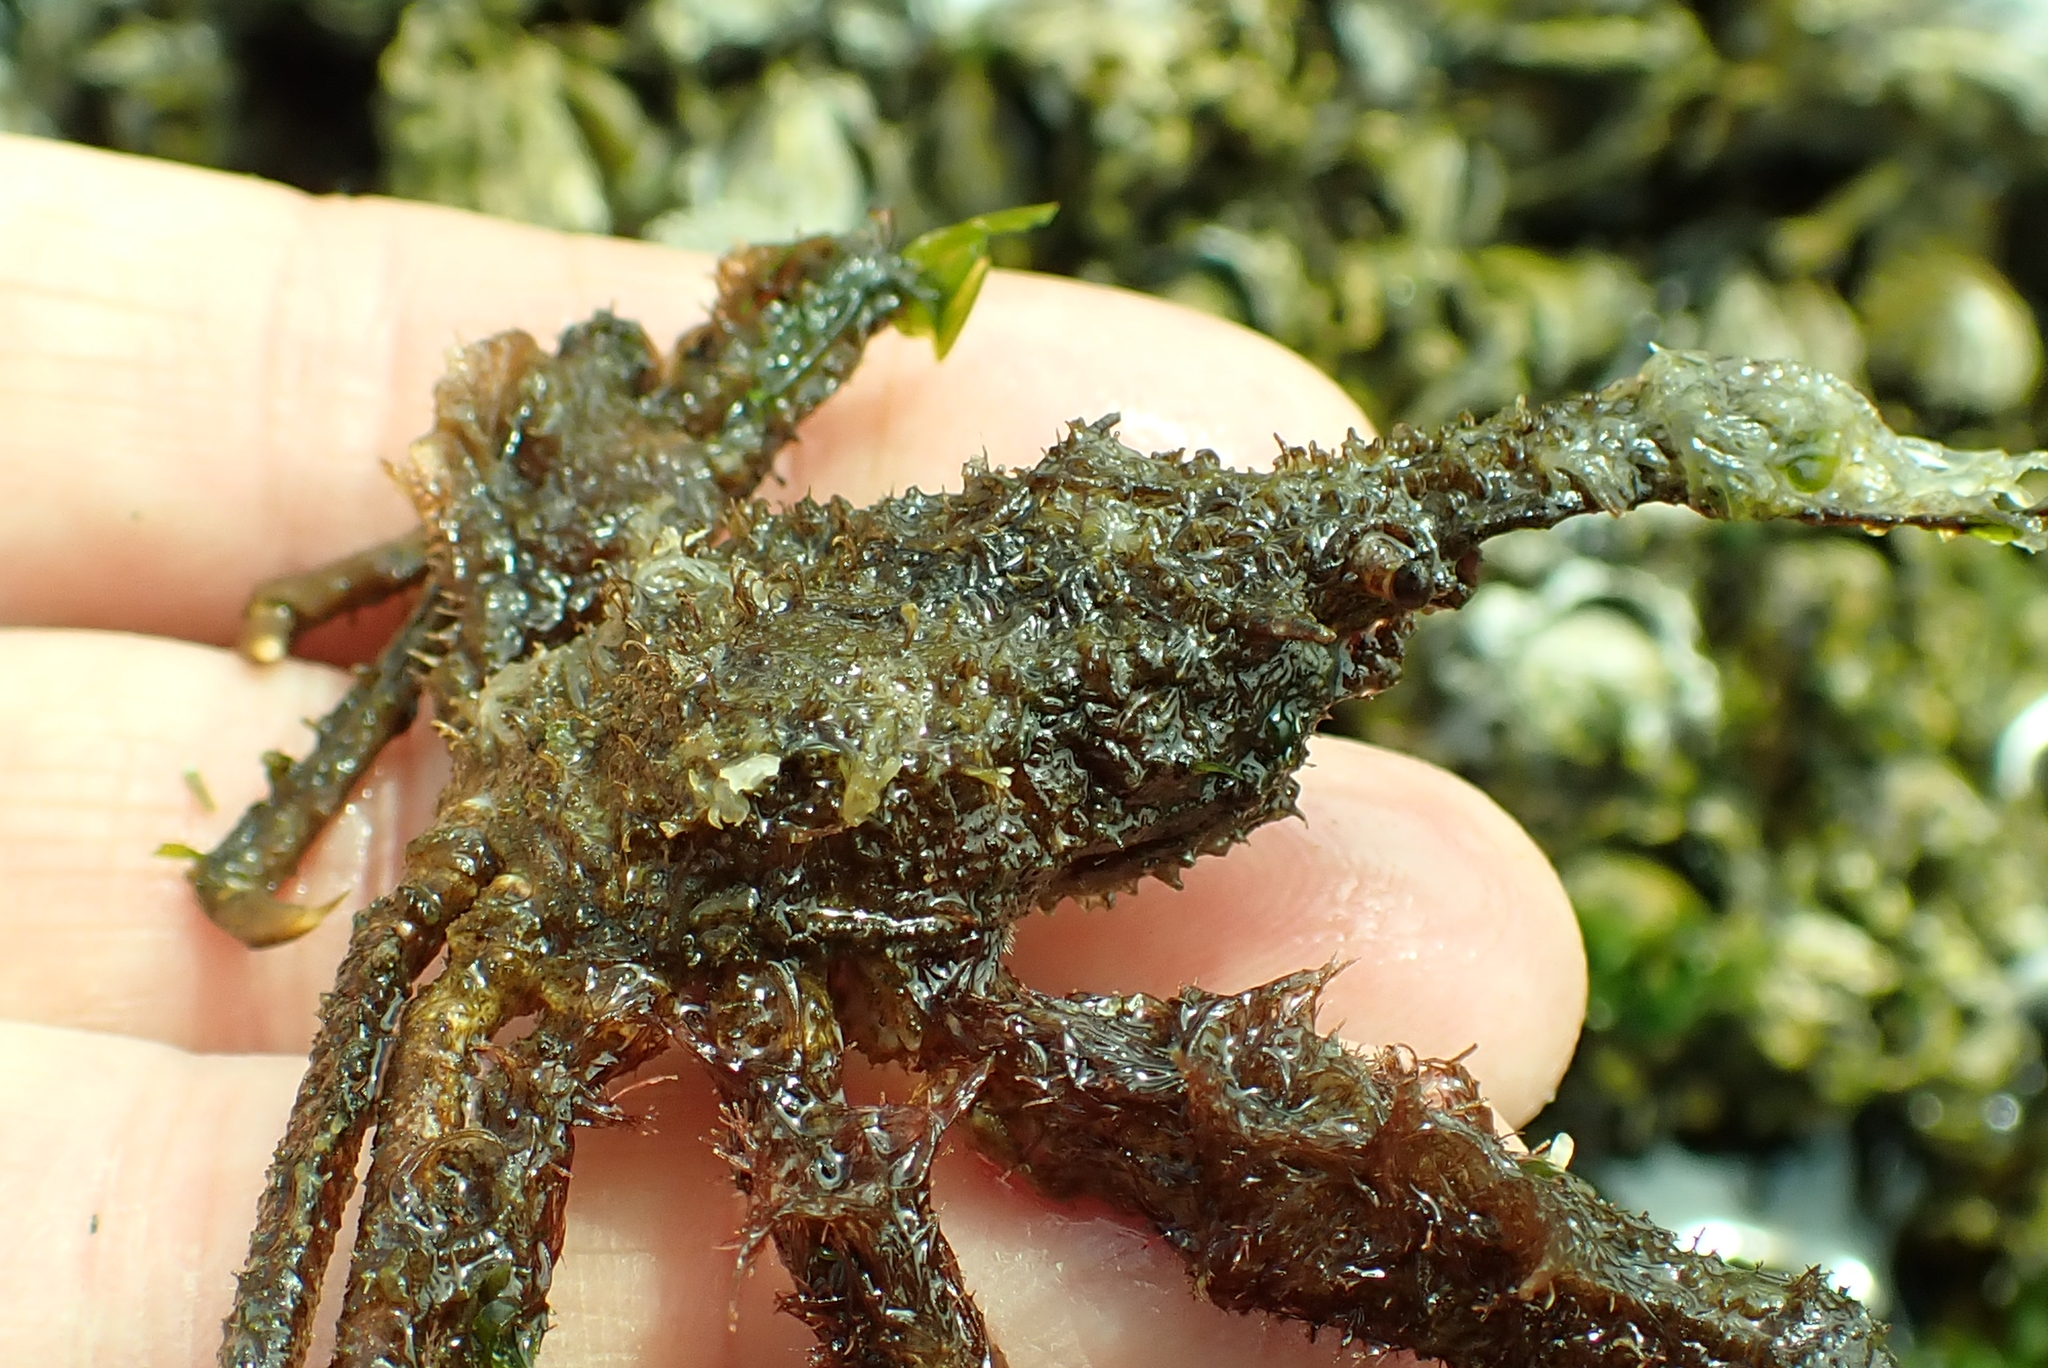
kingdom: Animalia
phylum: Arthropoda
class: Malacostraca
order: Decapoda
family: Oregoniidae
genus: Oregonia
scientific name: Oregonia gracilis
